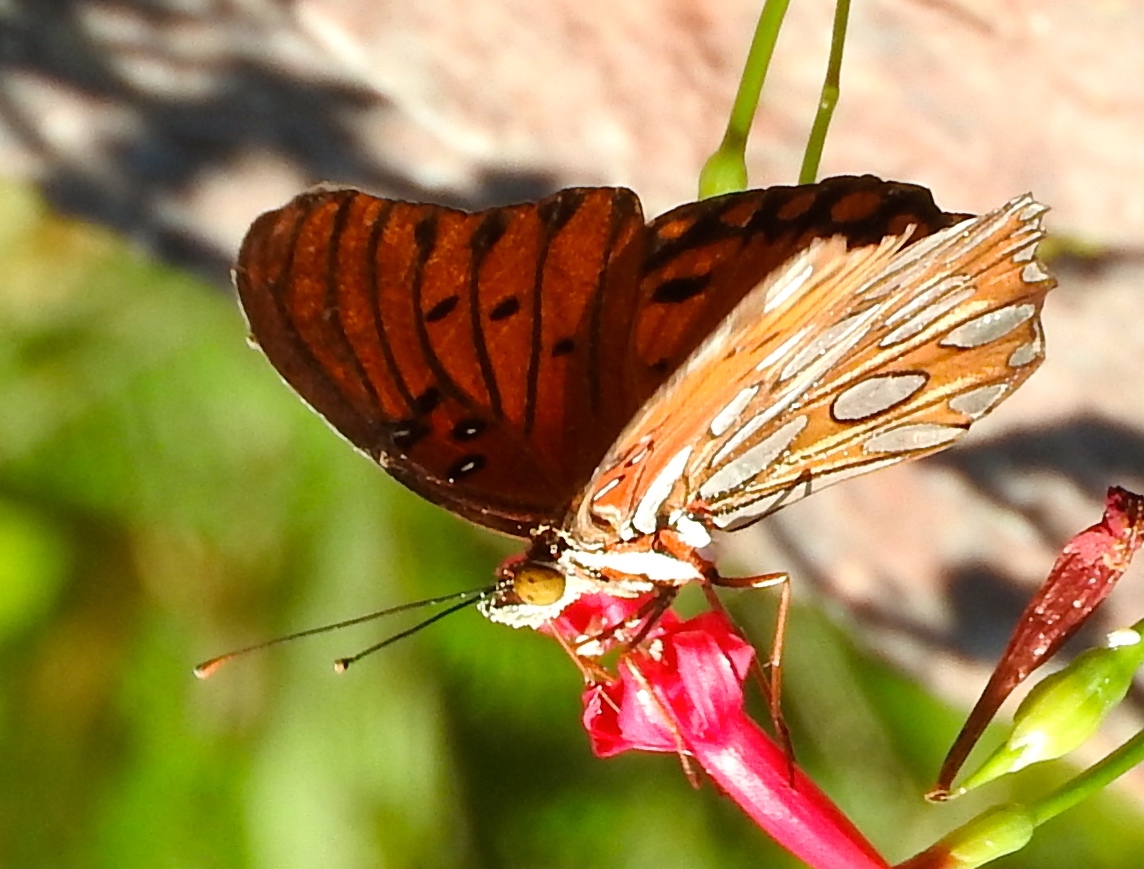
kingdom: Animalia
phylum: Arthropoda
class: Insecta
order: Lepidoptera
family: Nymphalidae
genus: Dione
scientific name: Dione vanillae
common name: Gulf fritillary
